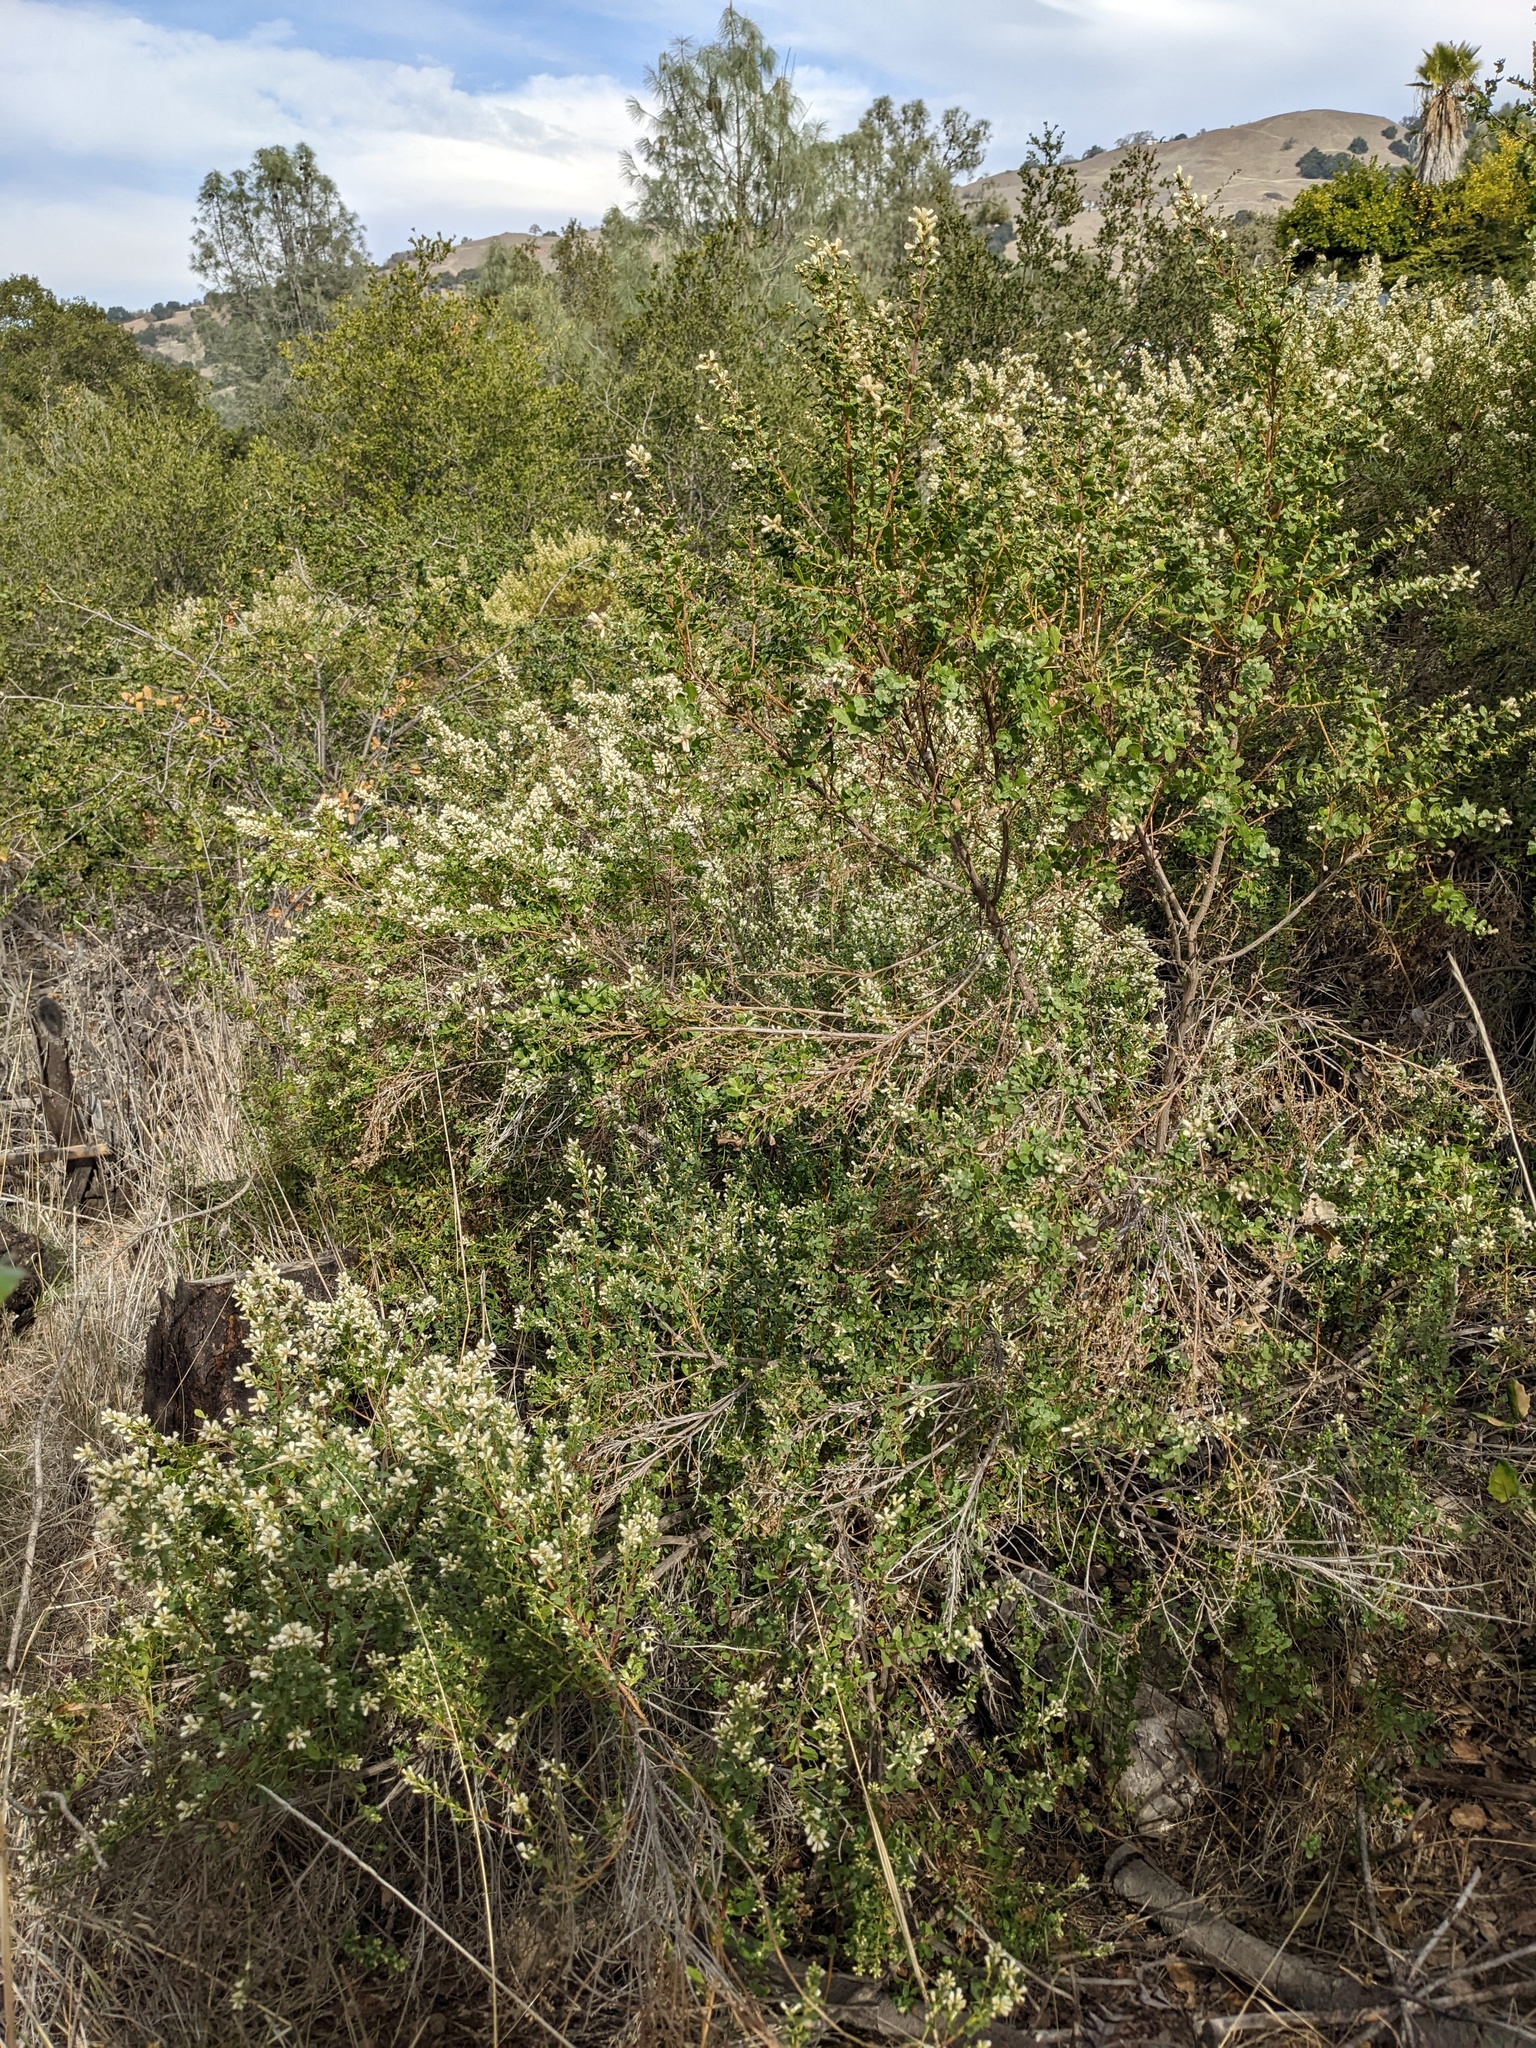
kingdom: Plantae
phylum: Tracheophyta
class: Magnoliopsida
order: Asterales
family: Asteraceae
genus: Baccharis
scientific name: Baccharis pilularis
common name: Coyotebrush
